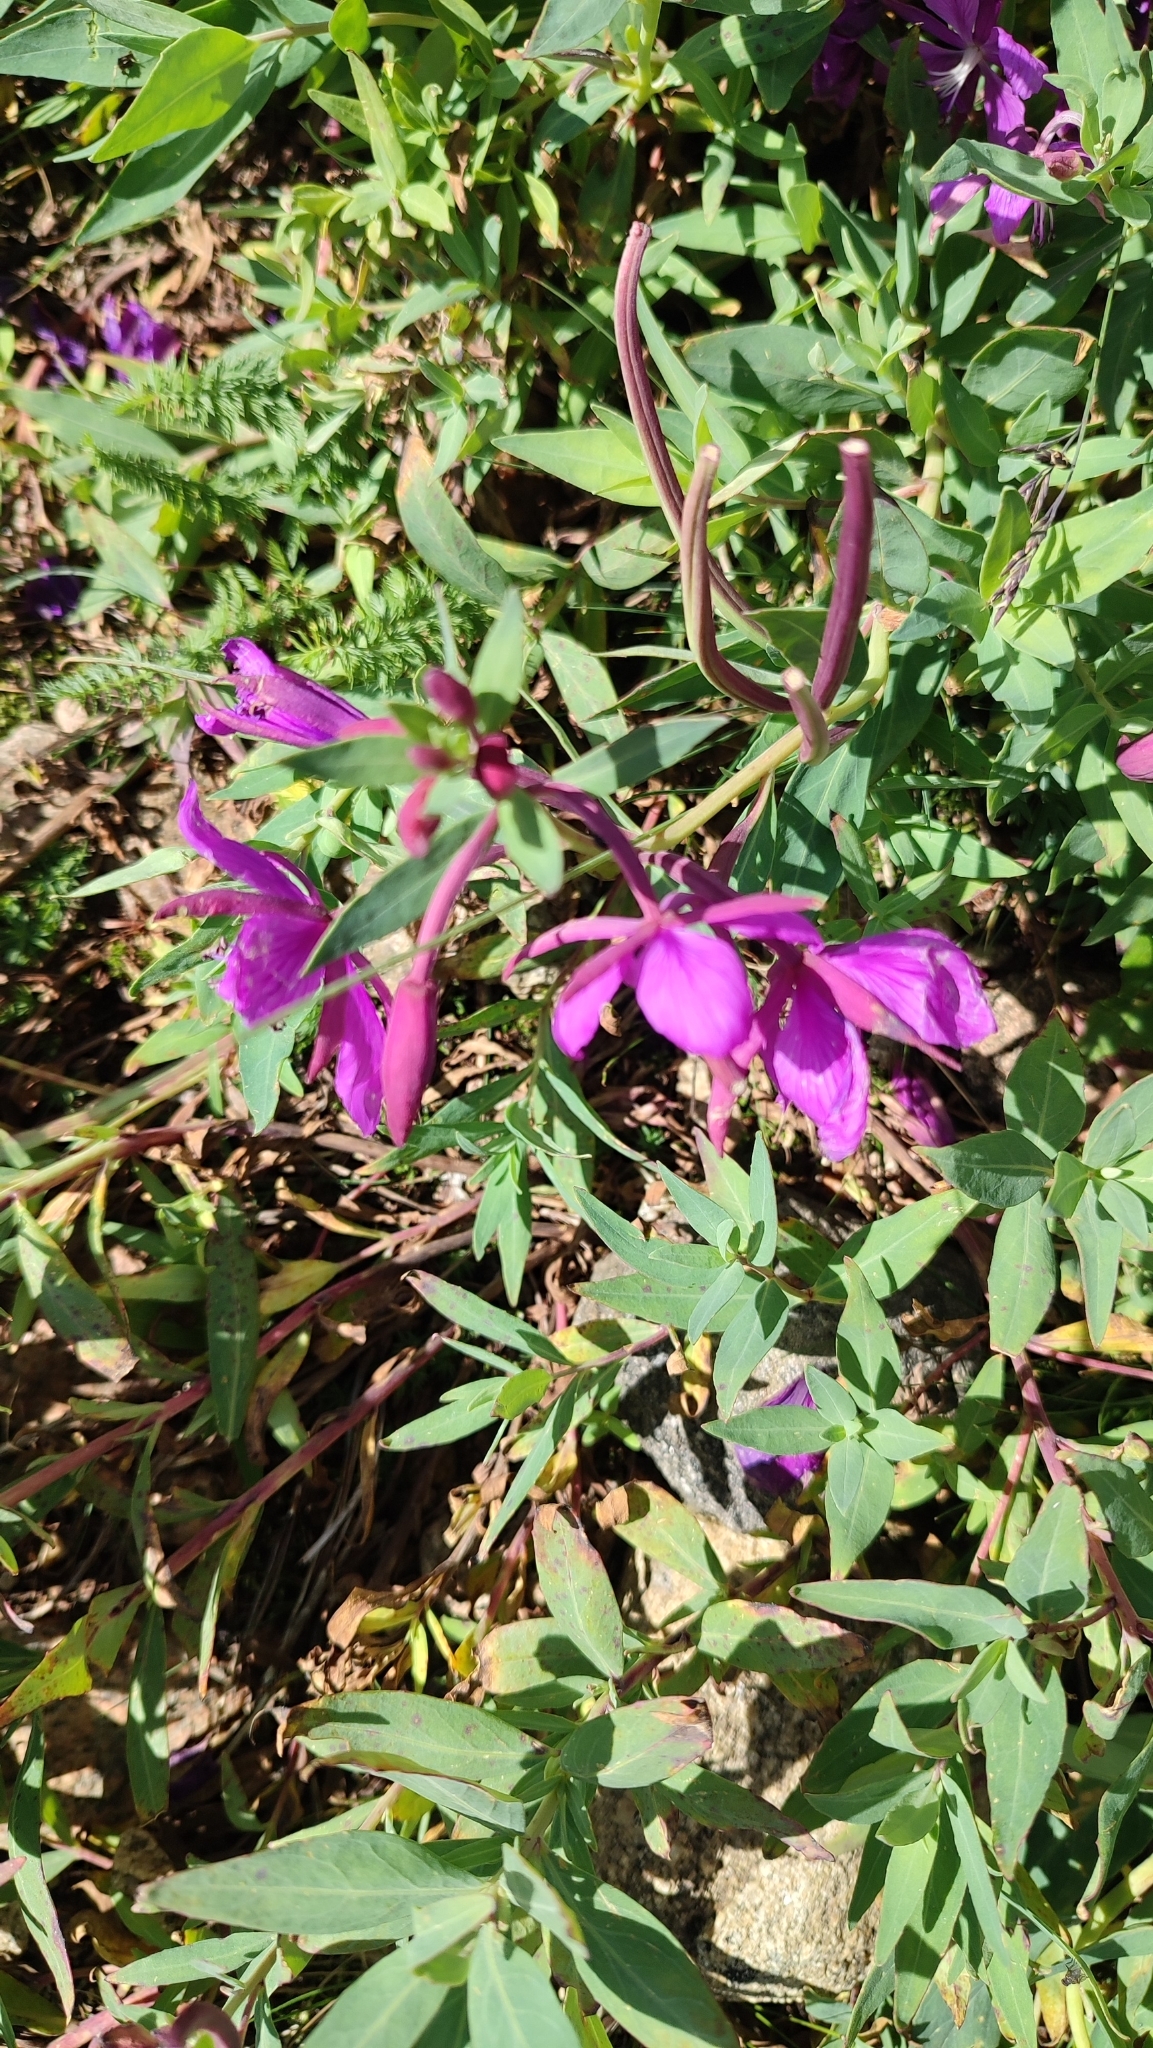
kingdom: Plantae
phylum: Tracheophyta
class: Magnoliopsida
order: Myrtales
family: Onagraceae
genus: Chamaenerion
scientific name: Chamaenerion latifolium
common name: Dwarf fireweed
